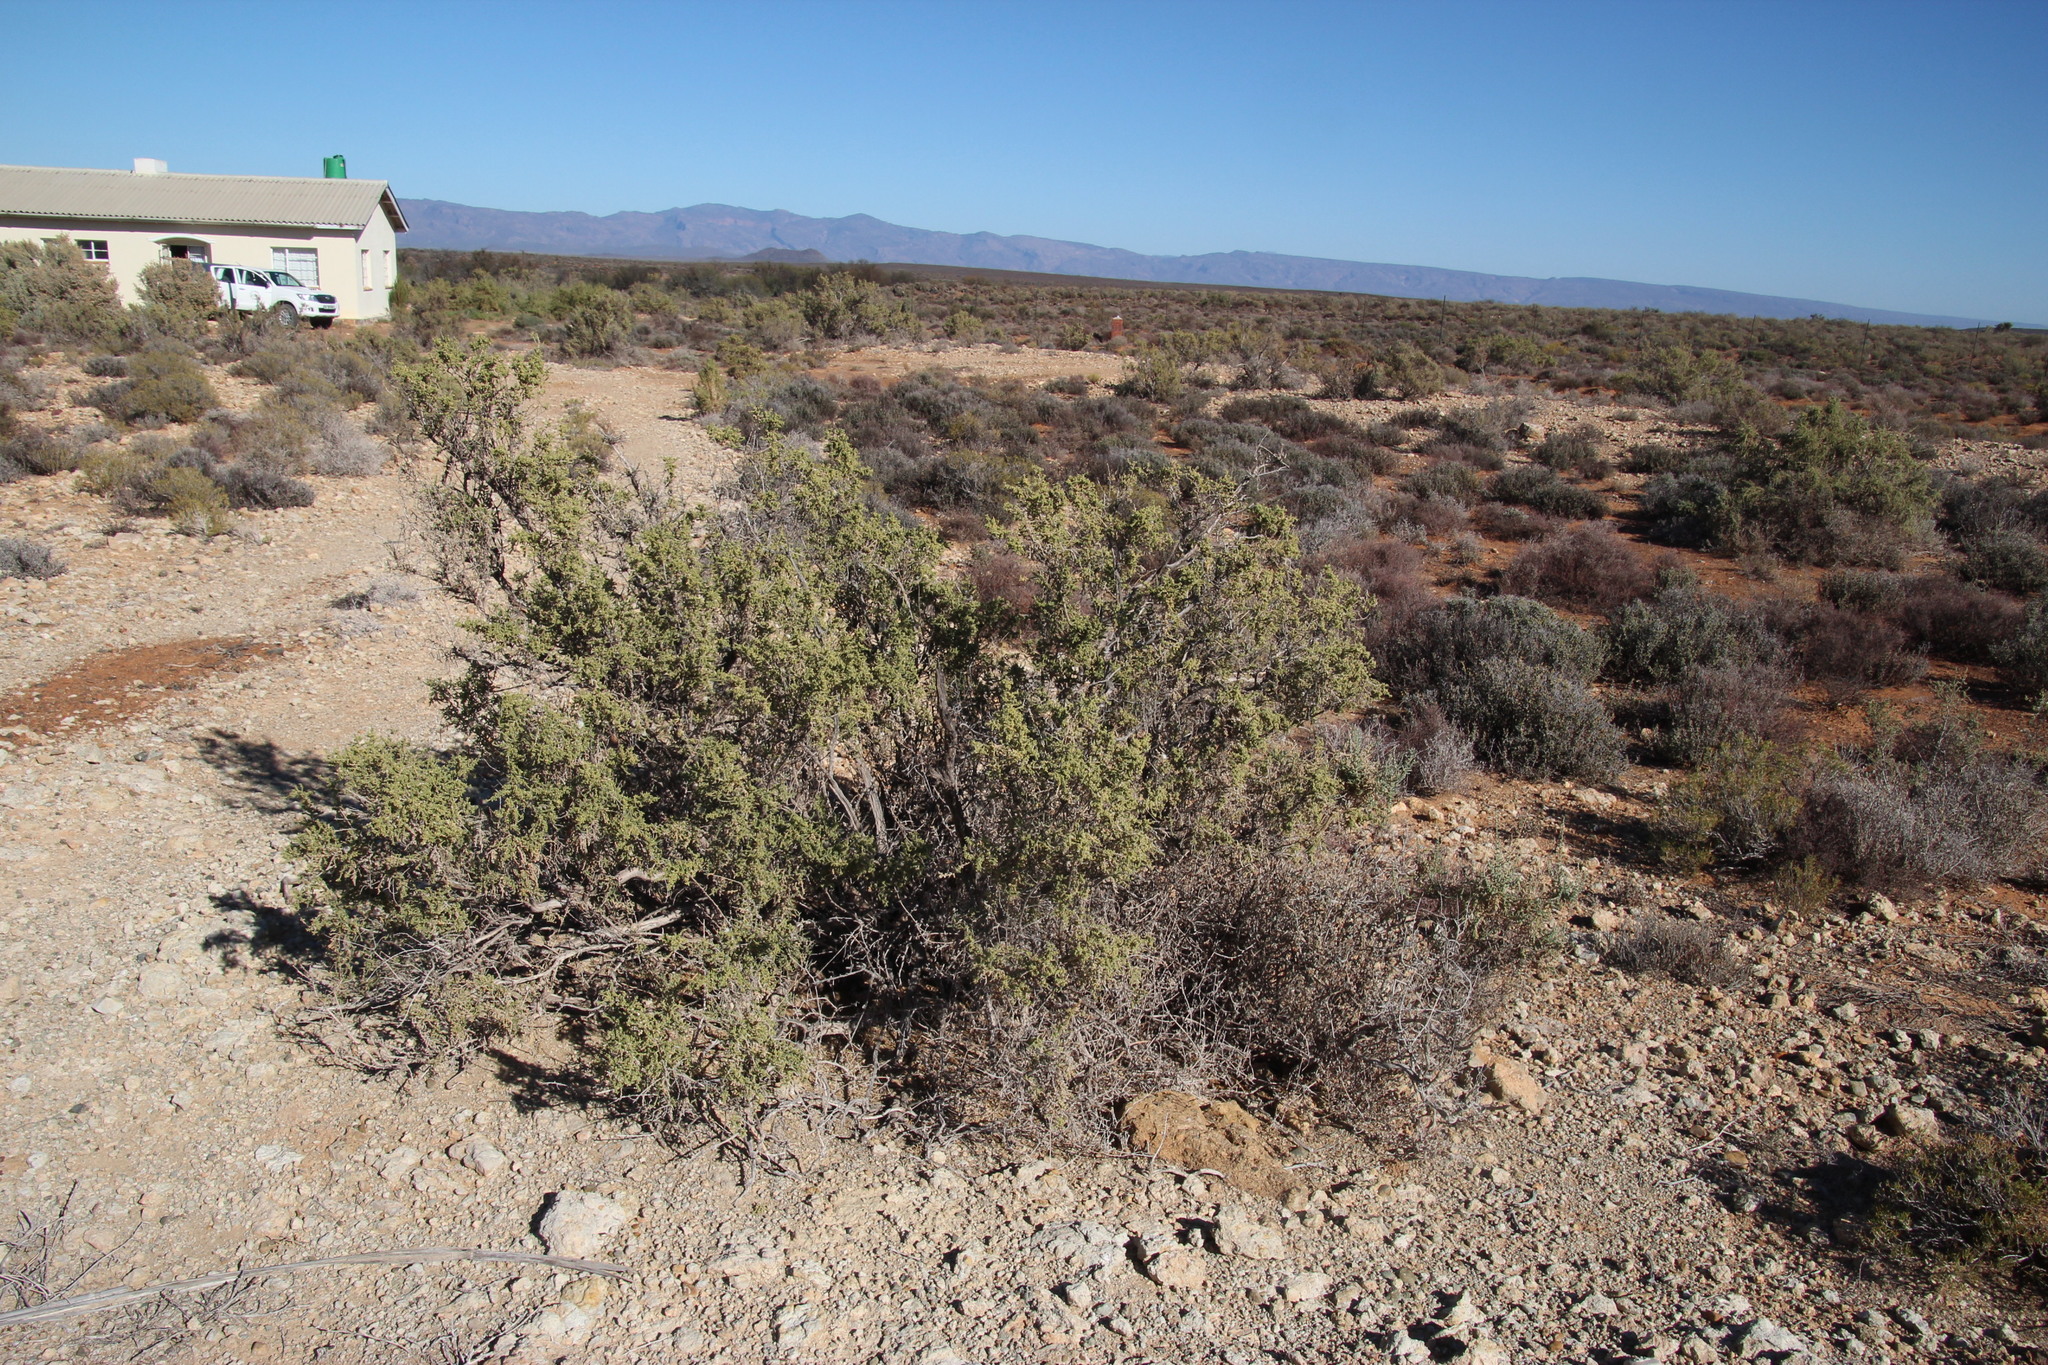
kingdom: Plantae
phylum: Tracheophyta
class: Magnoliopsida
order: Caryophyllales
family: Amaranthaceae
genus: Caroxylon
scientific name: Caroxylon aphyllum
